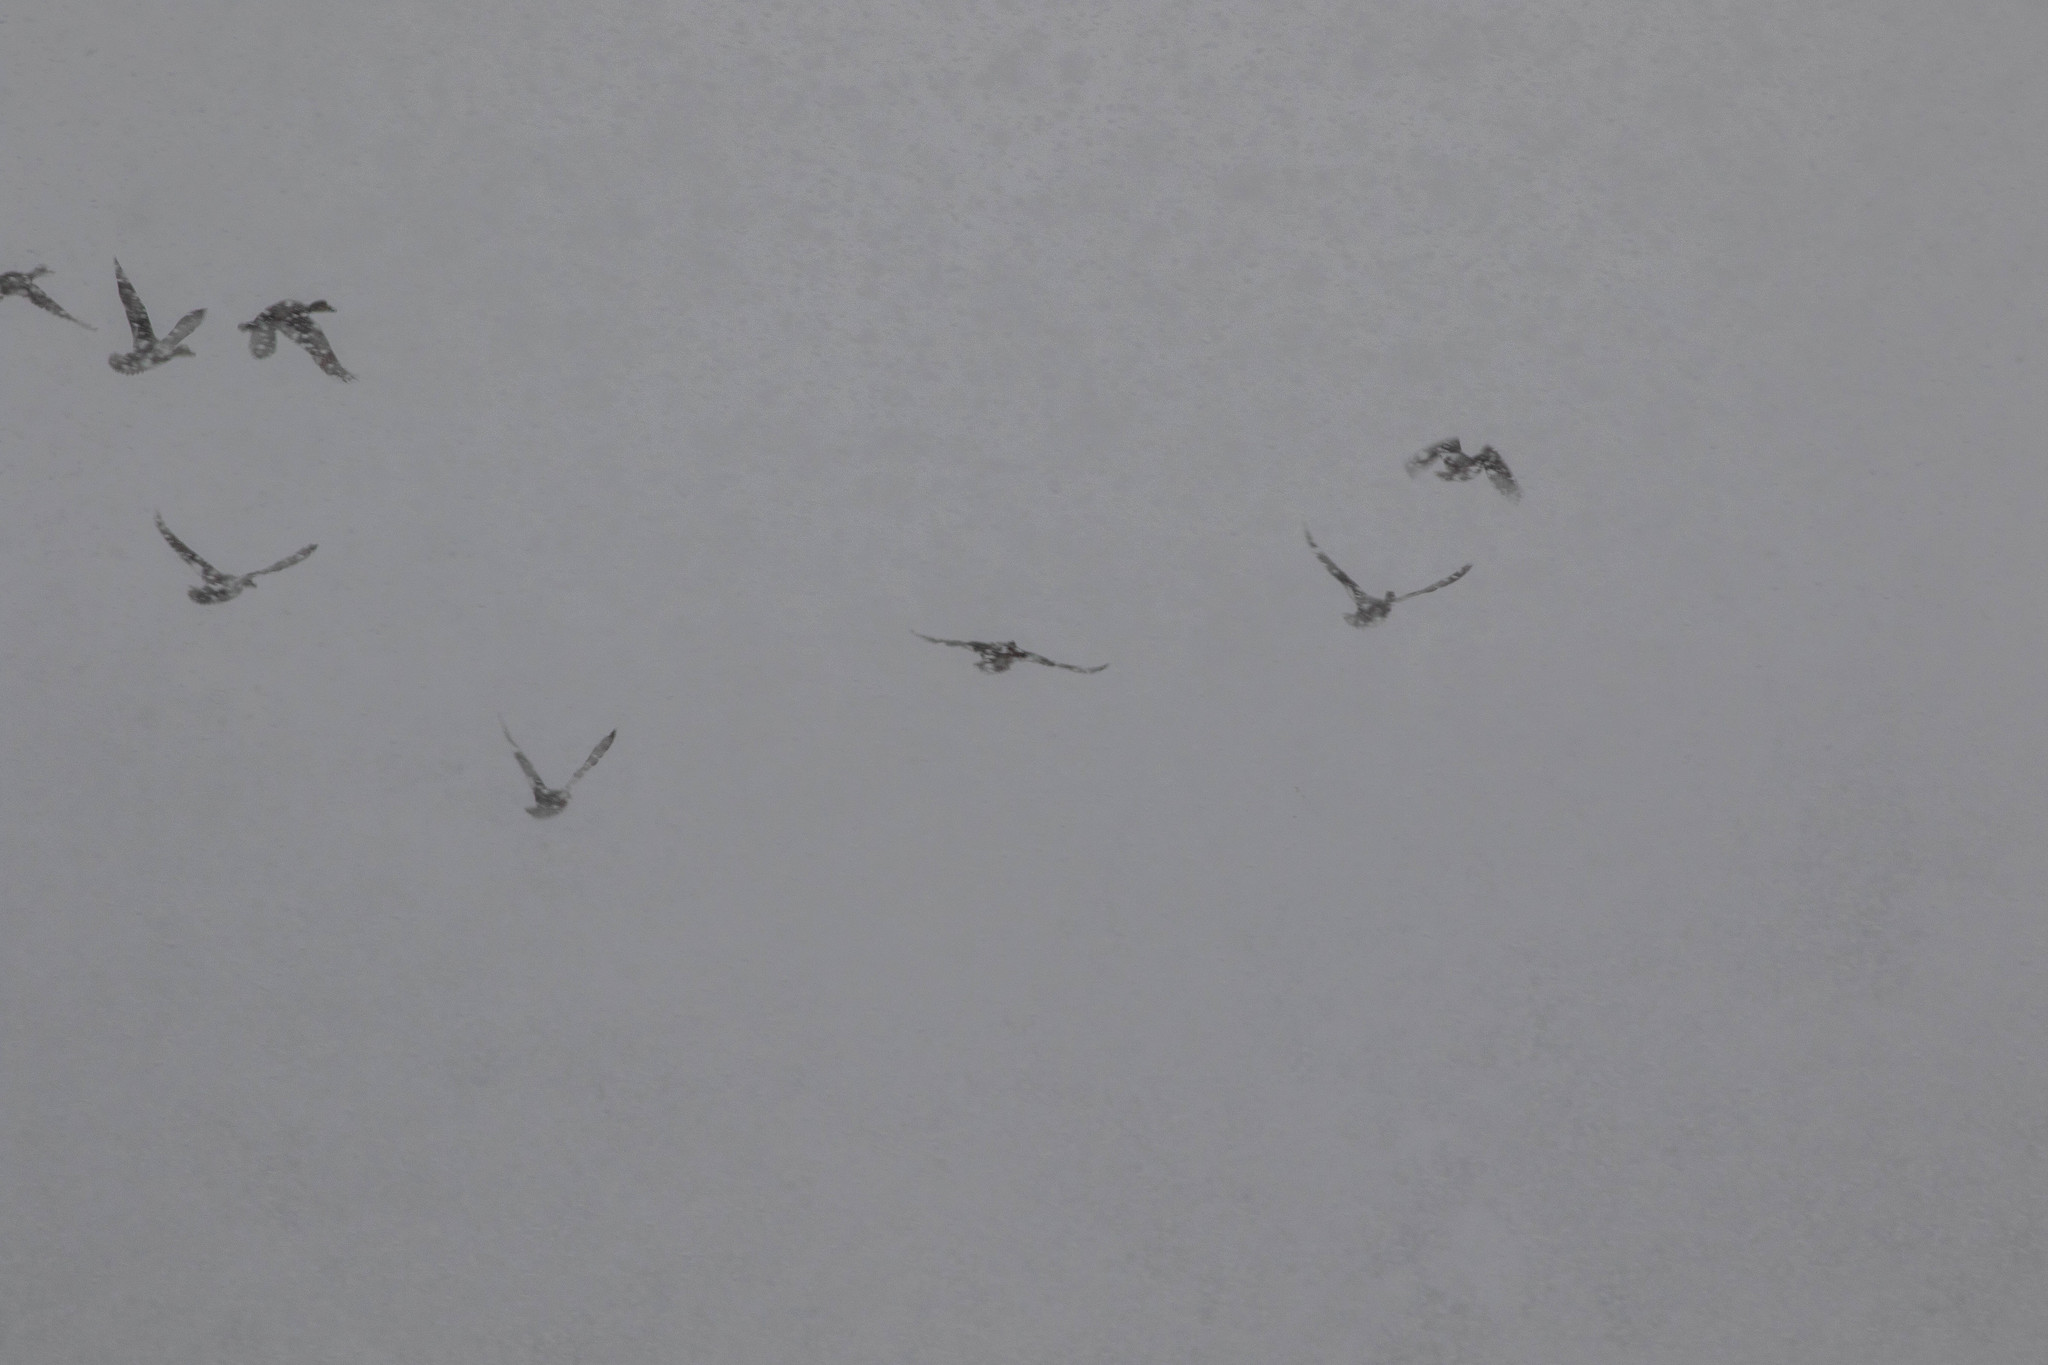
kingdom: Animalia
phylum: Chordata
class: Aves
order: Anseriformes
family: Anatidae
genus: Mareca
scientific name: Mareca strepera
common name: Gadwall
